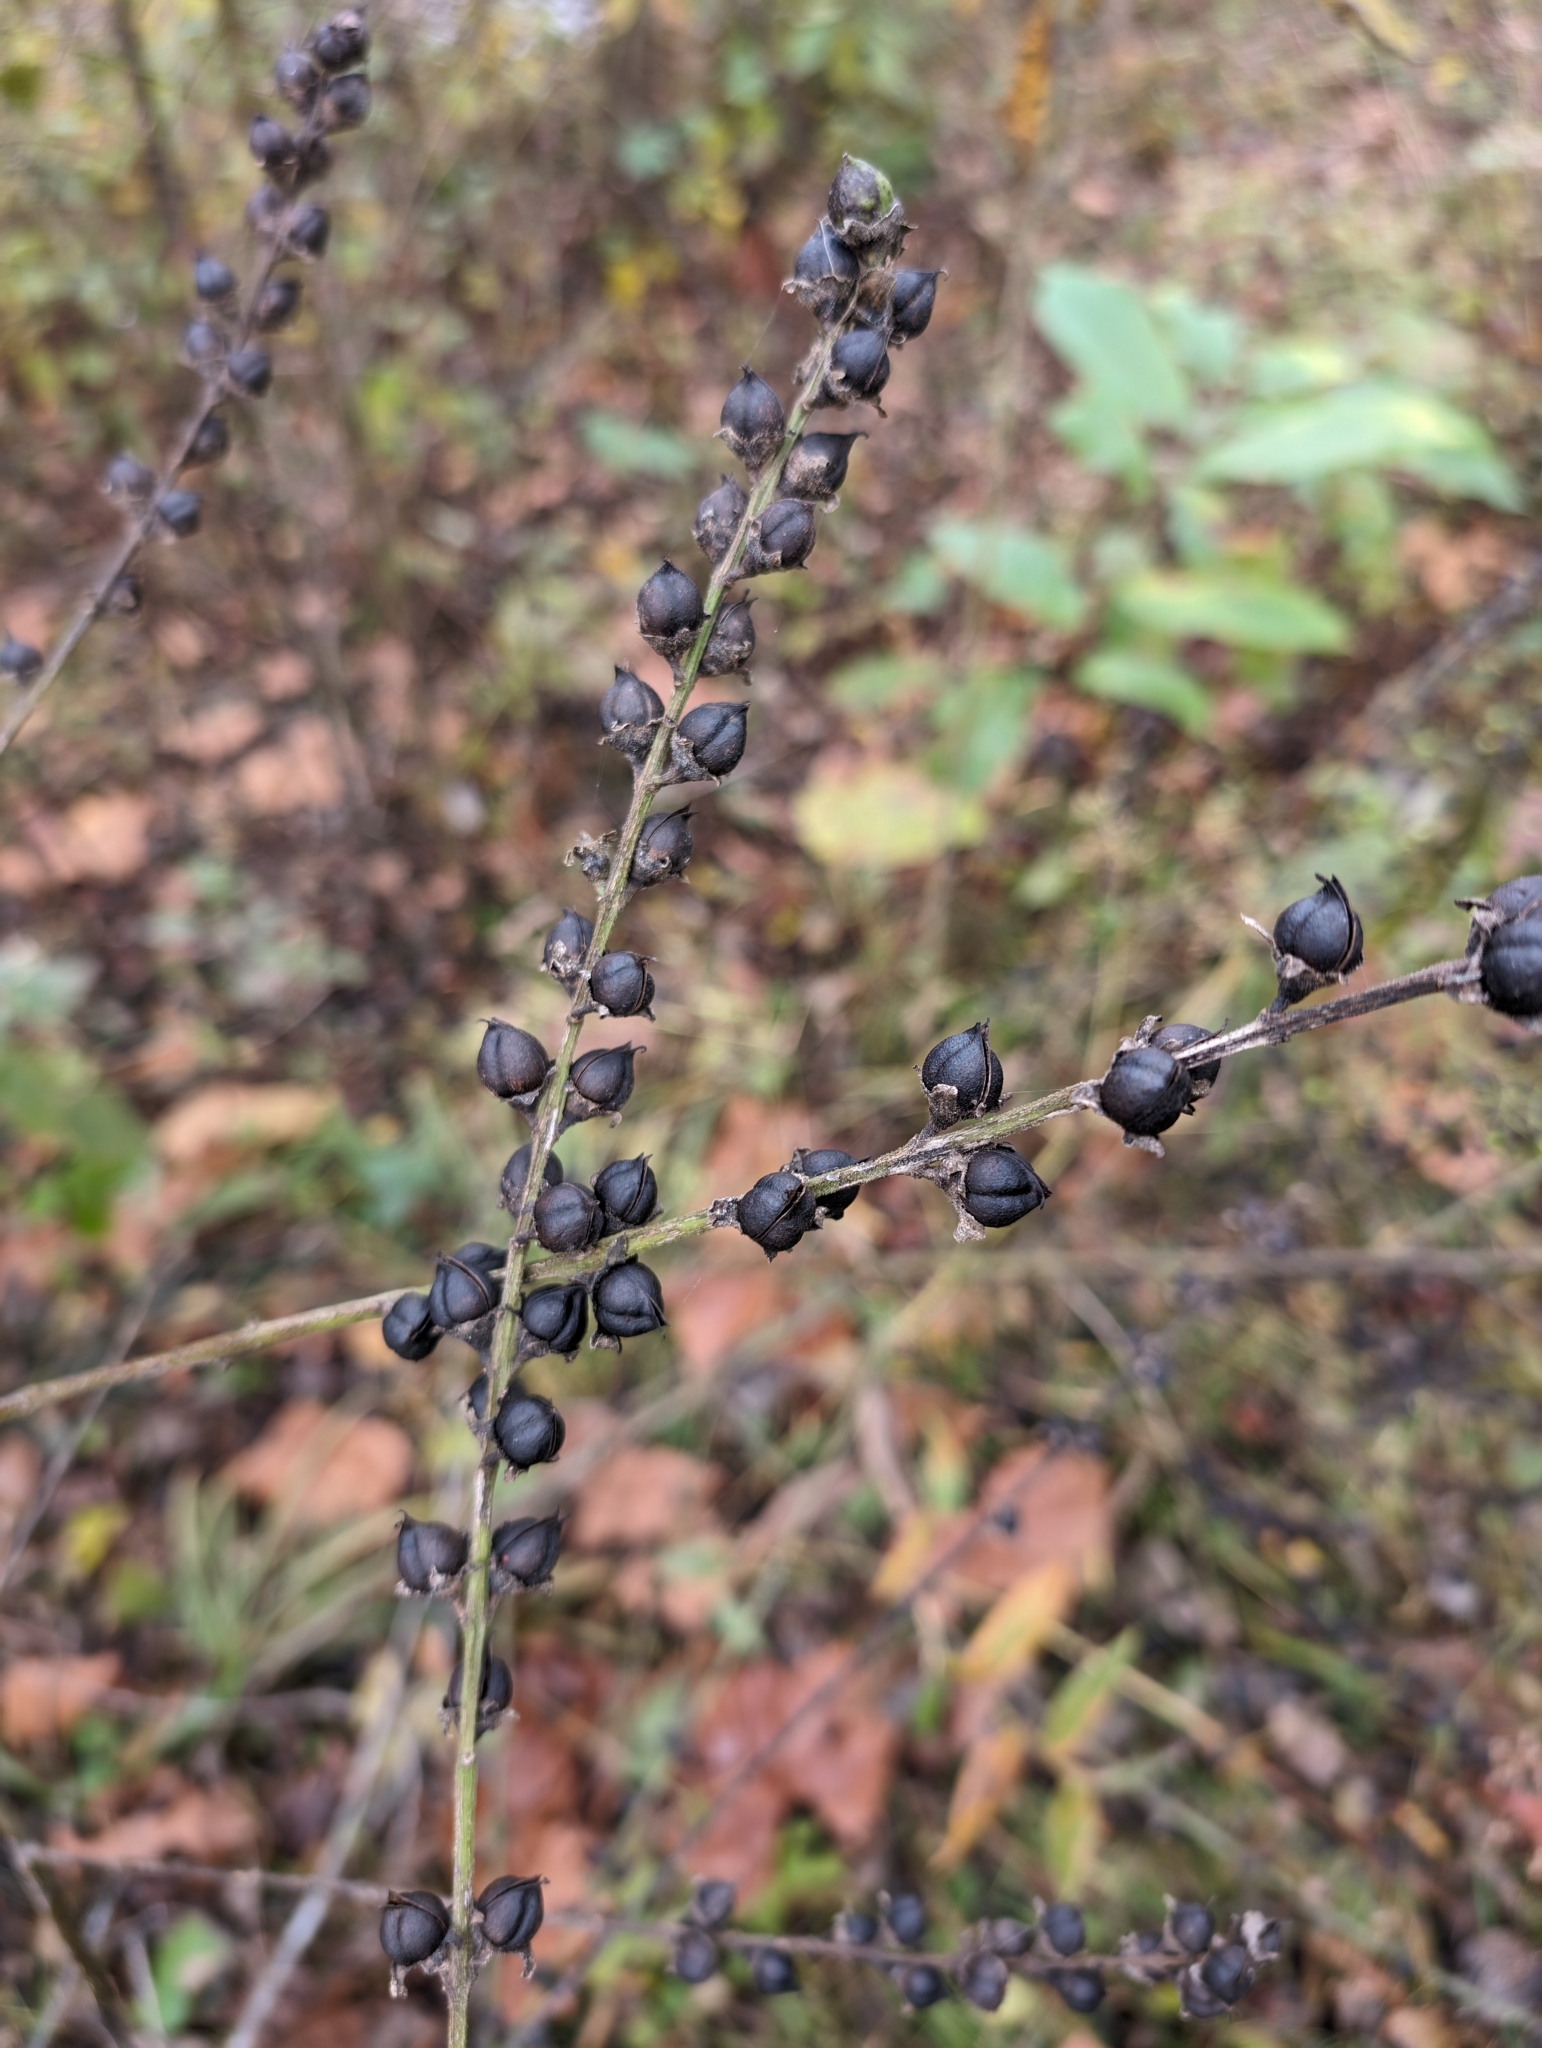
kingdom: Plantae
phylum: Tracheophyta
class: Magnoliopsida
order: Lamiales
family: Orobanchaceae
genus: Dasistoma
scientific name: Dasistoma macrophyllum
